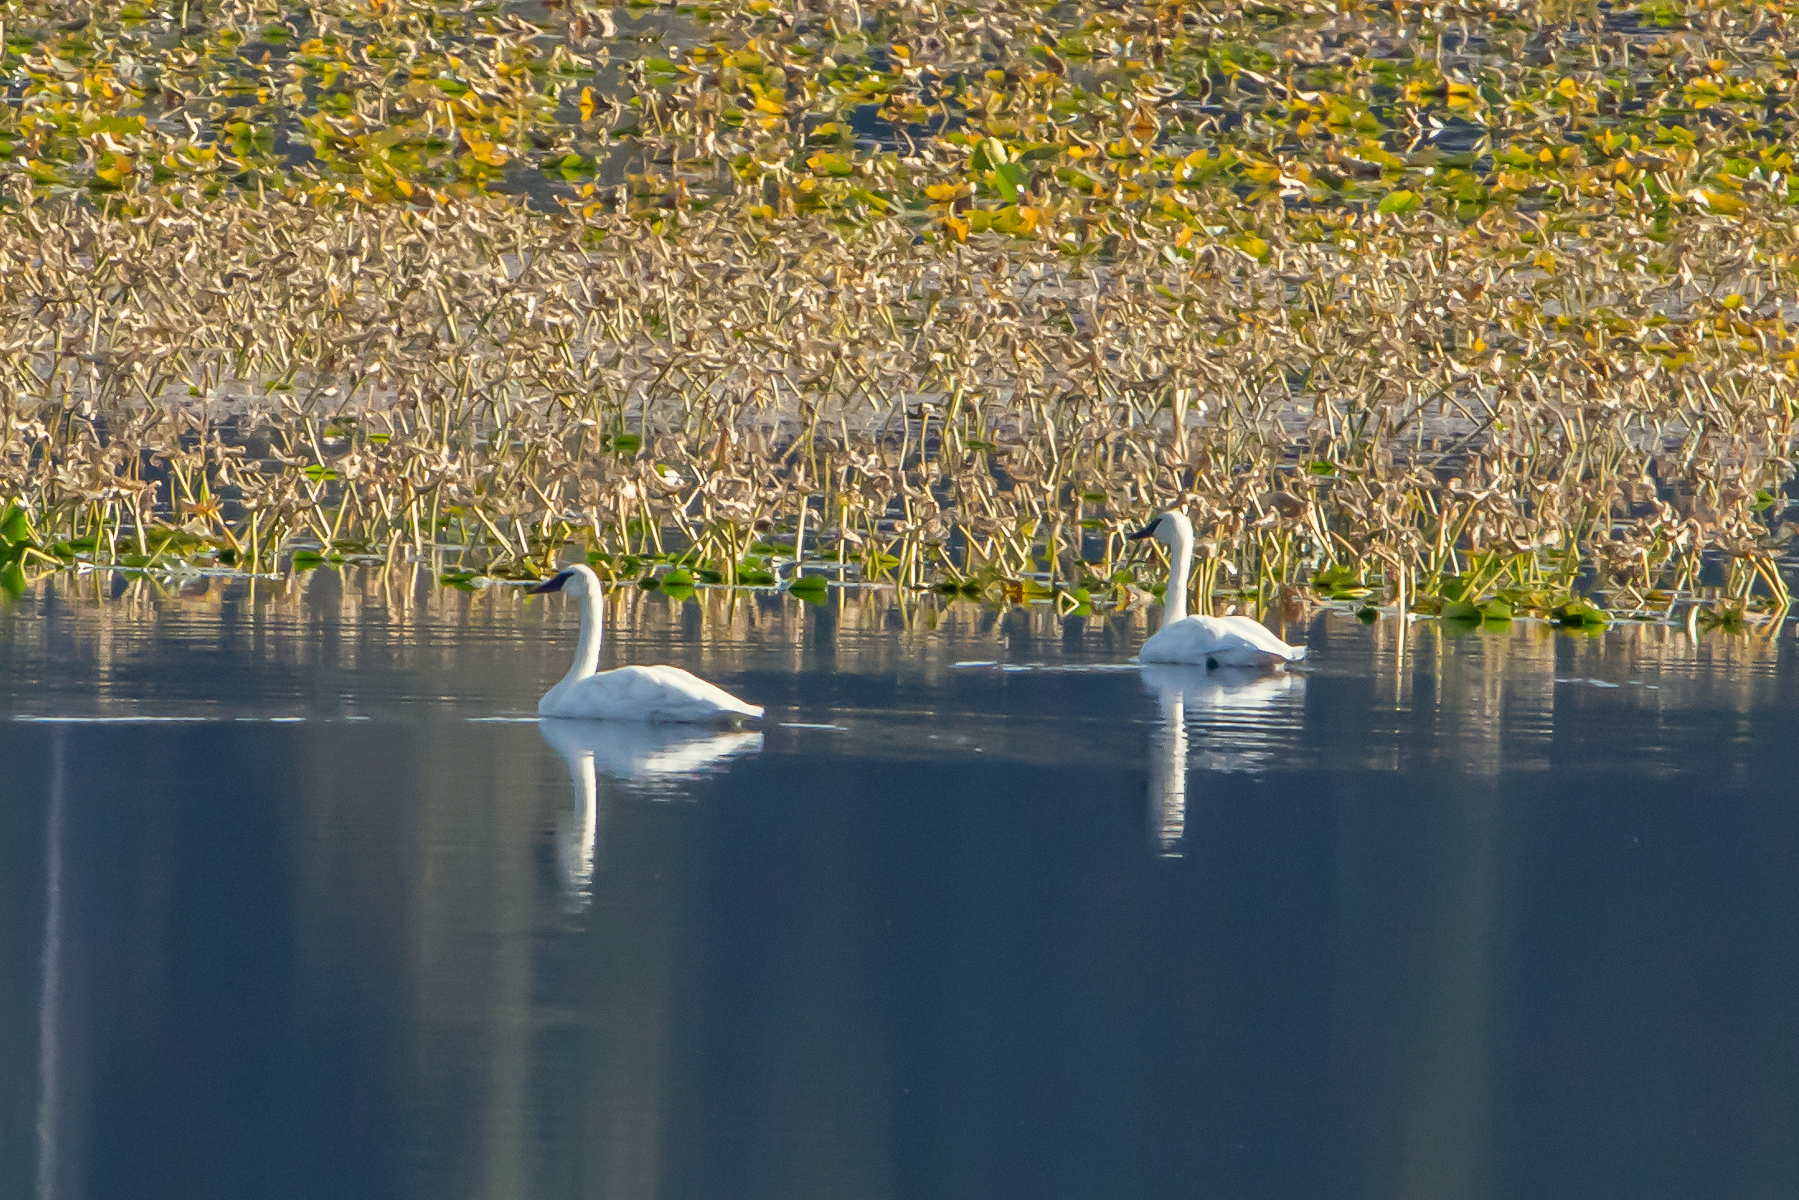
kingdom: Animalia
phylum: Chordata
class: Aves
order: Anseriformes
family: Anatidae
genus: Cygnus
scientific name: Cygnus buccinator
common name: Trumpeter swan
